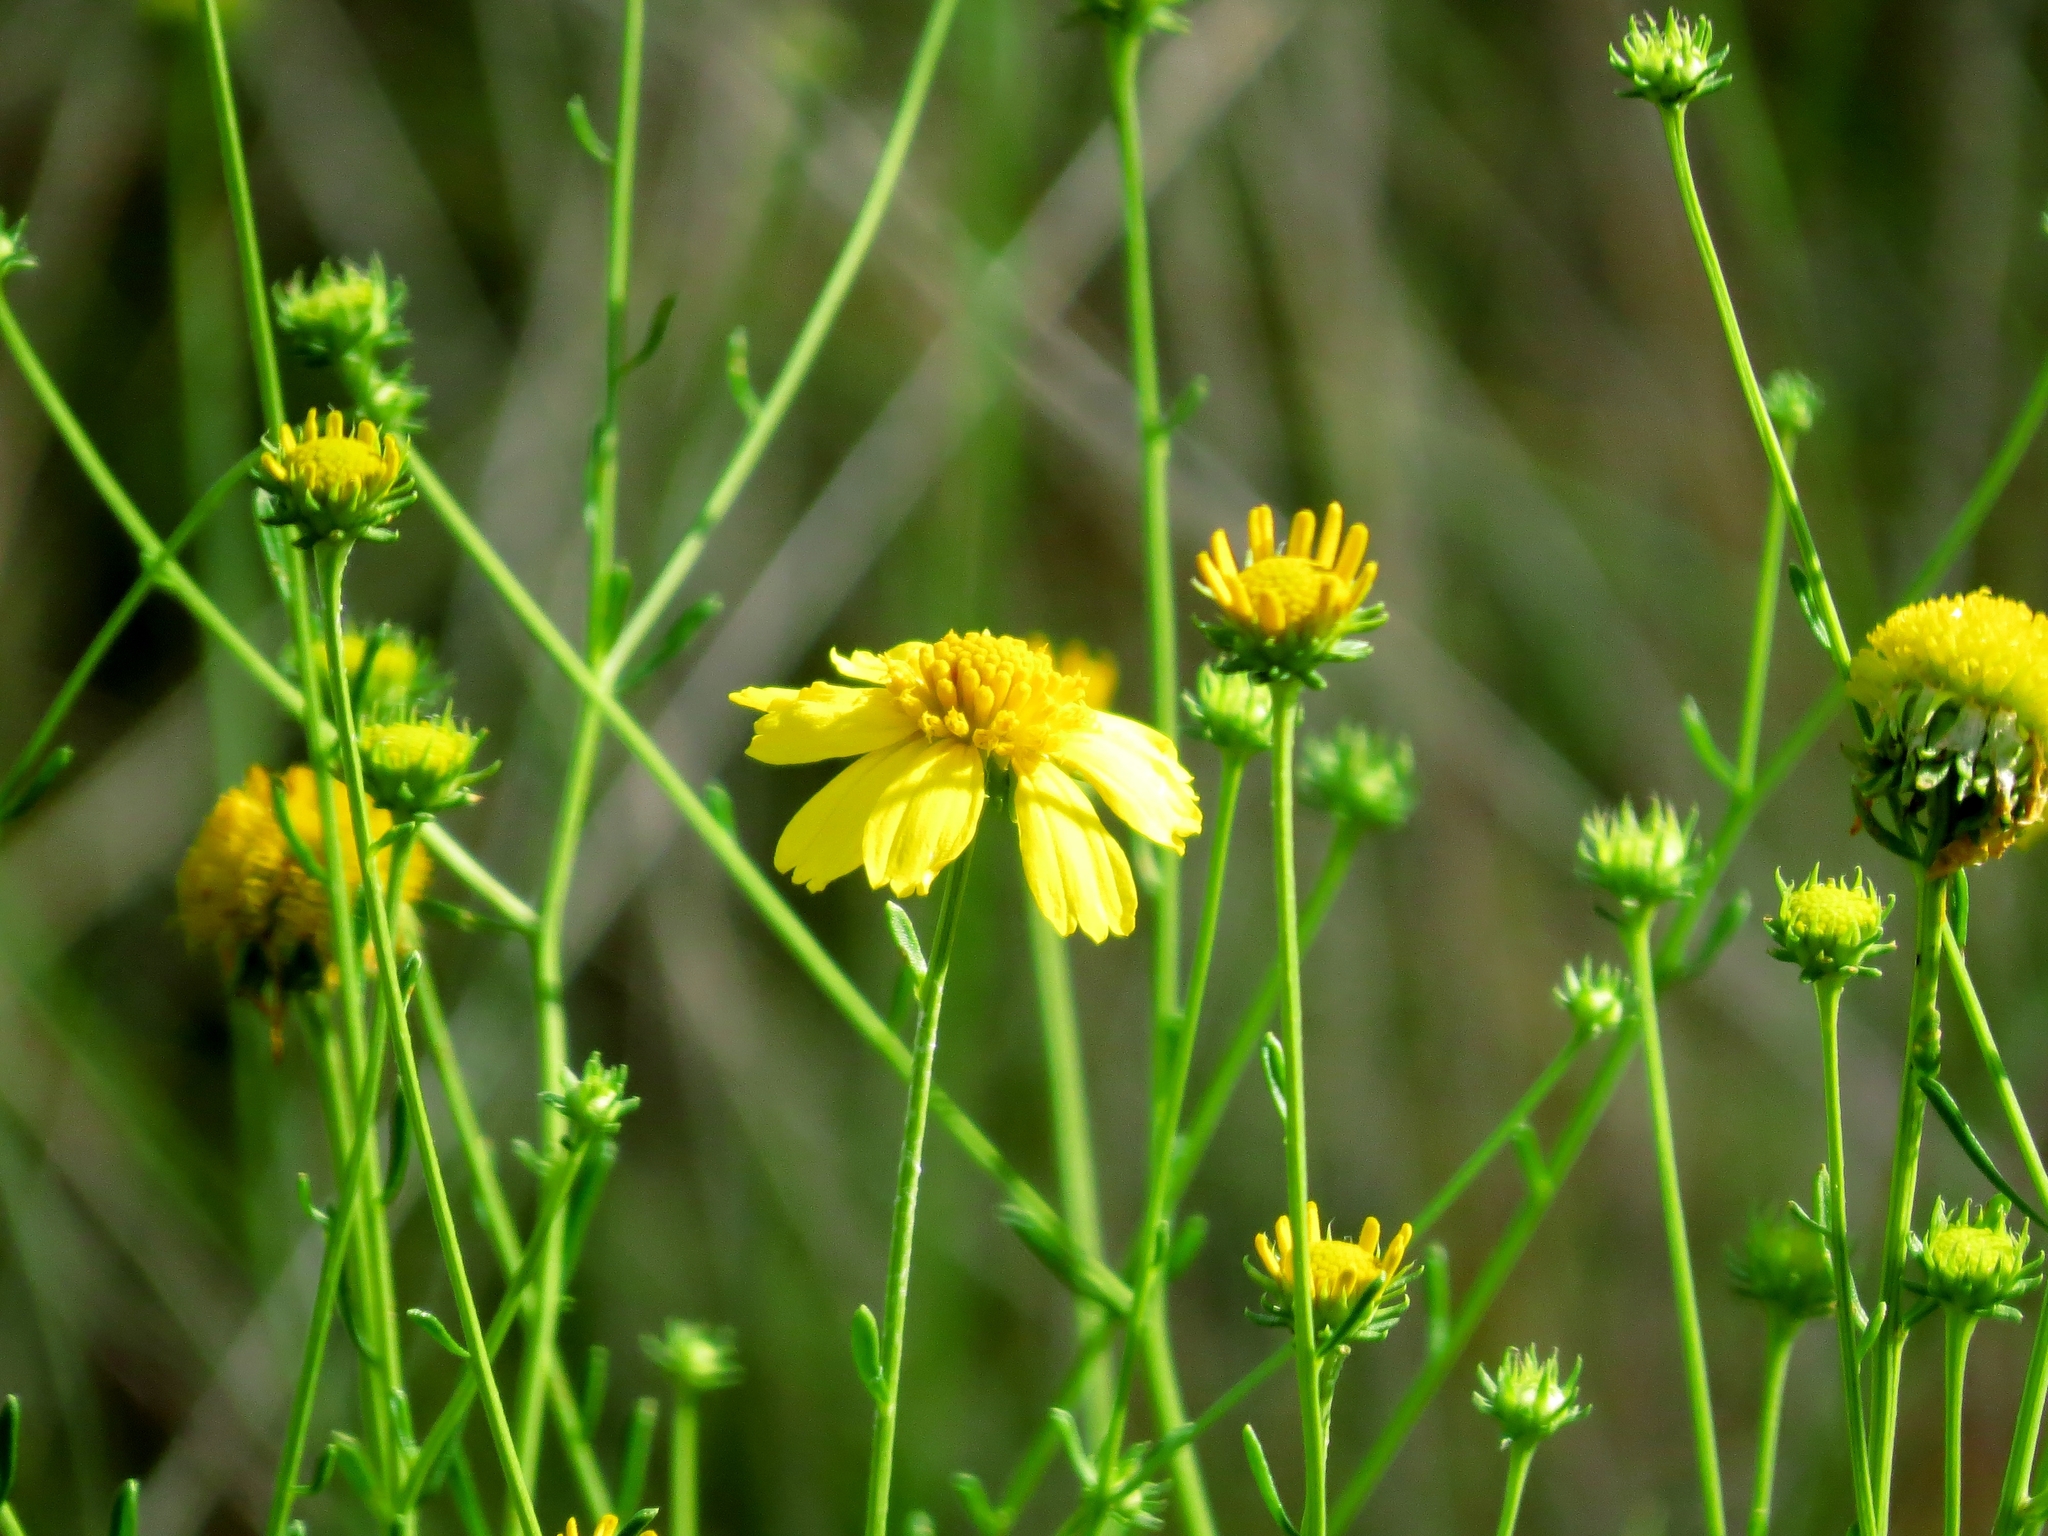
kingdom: Plantae
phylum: Tracheophyta
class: Magnoliopsida
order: Asterales
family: Asteraceae
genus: Balduina
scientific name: Balduina angustifolia
